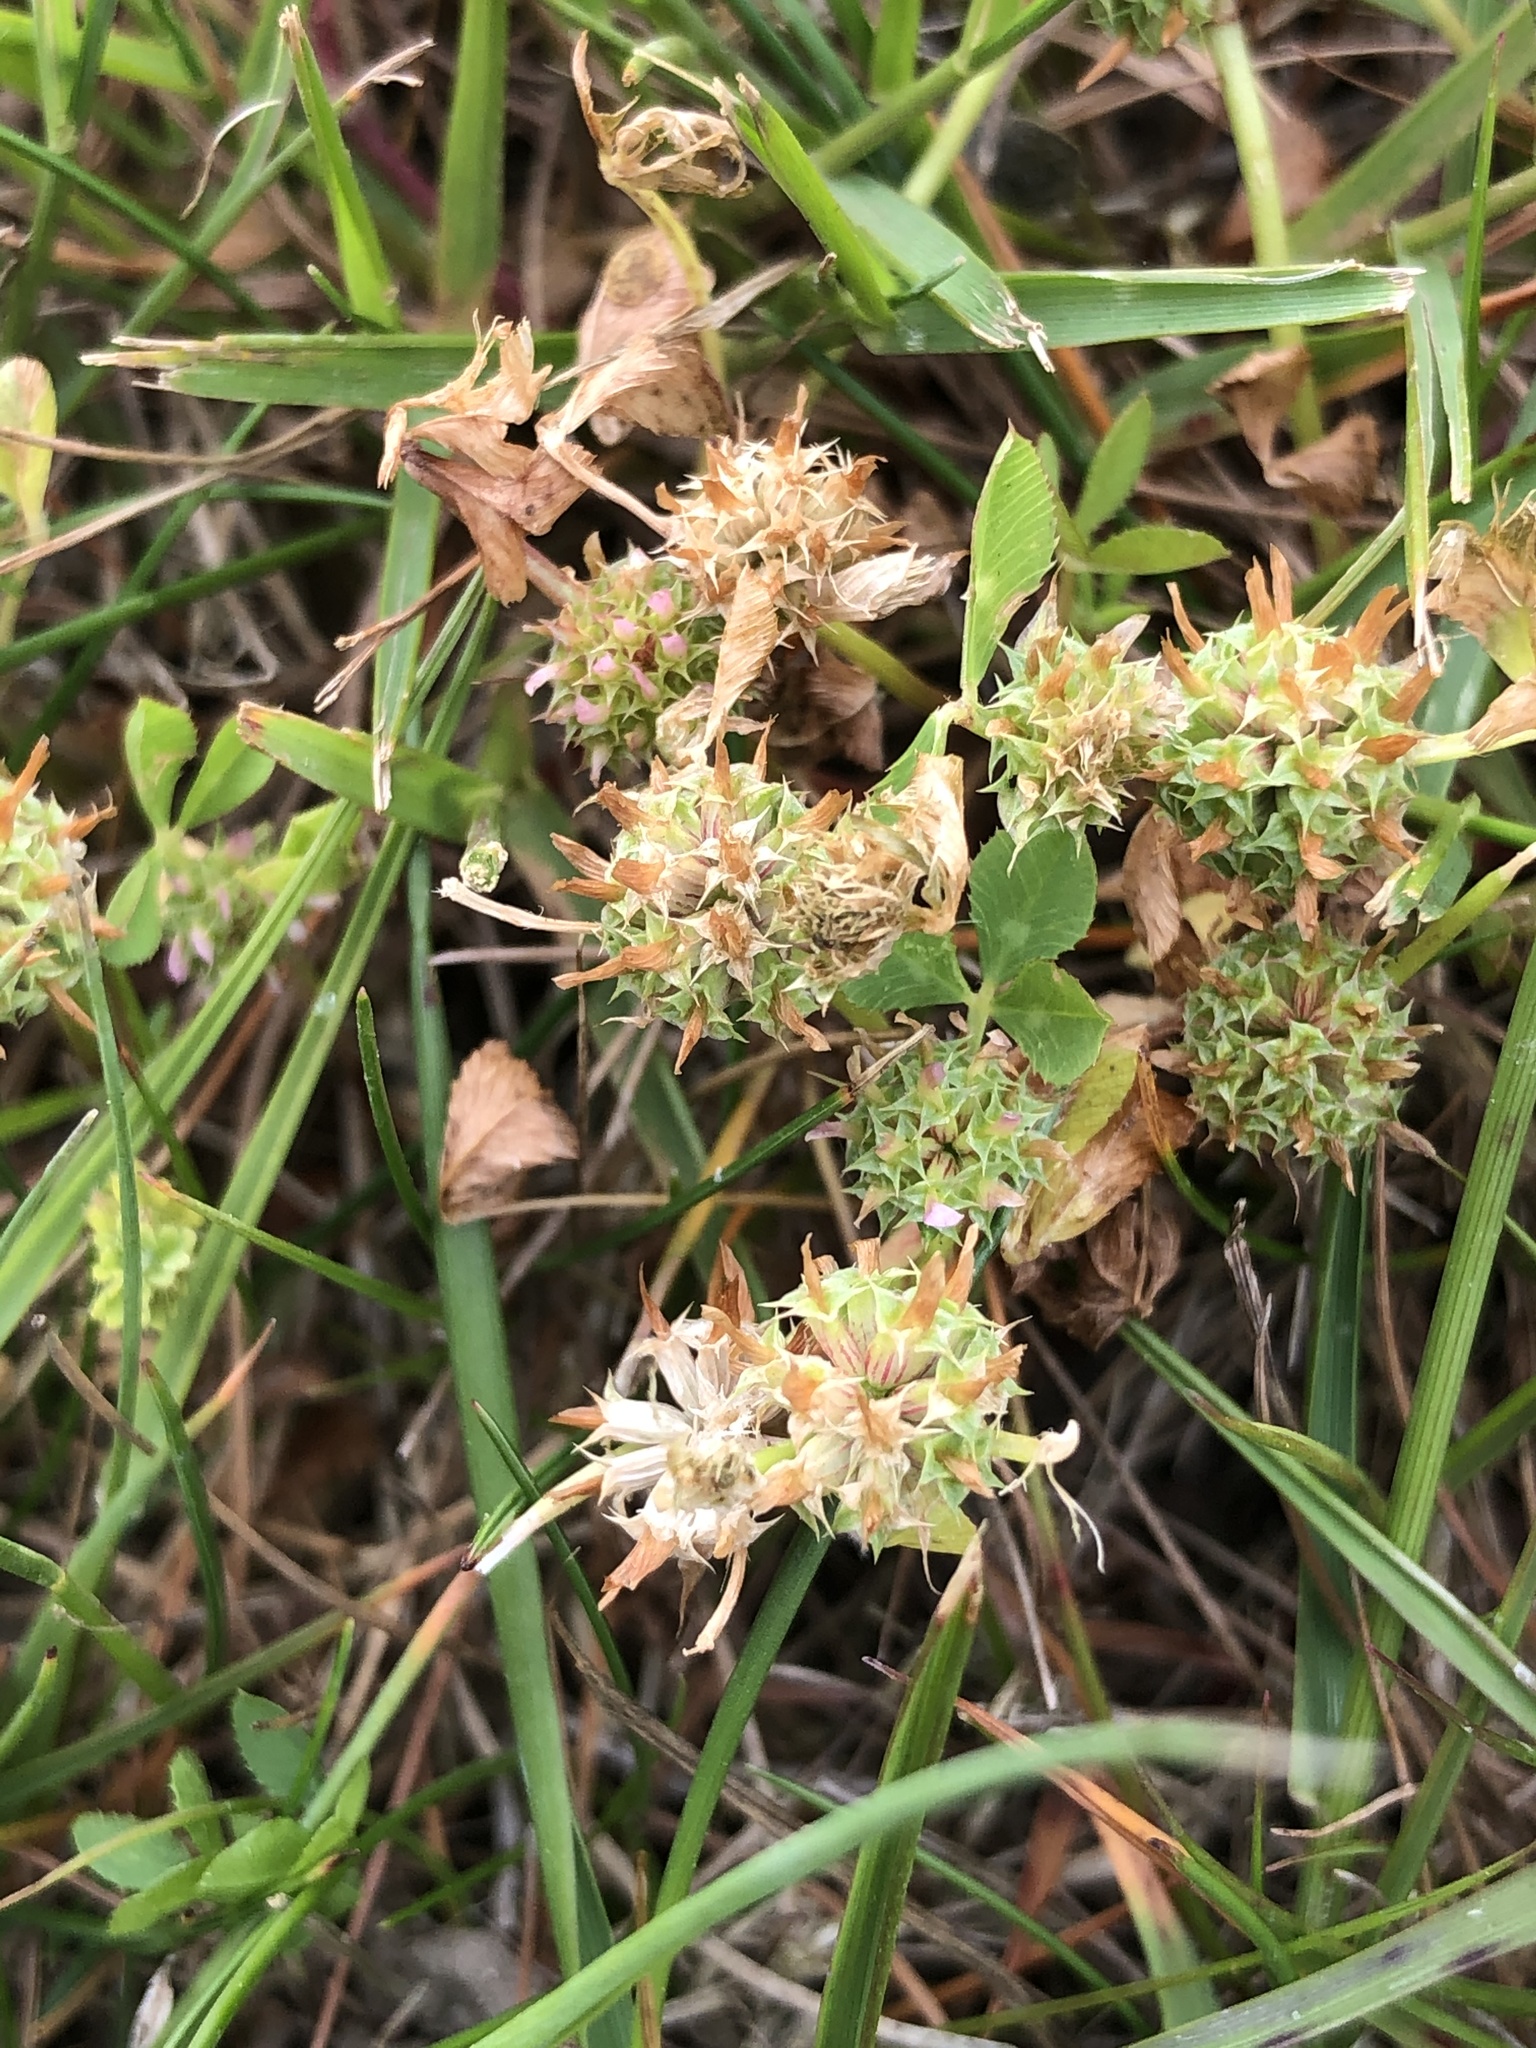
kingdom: Plantae
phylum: Tracheophyta
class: Magnoliopsida
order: Fabales
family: Fabaceae
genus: Trifolium
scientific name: Trifolium glomeratum
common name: Clustered clover
